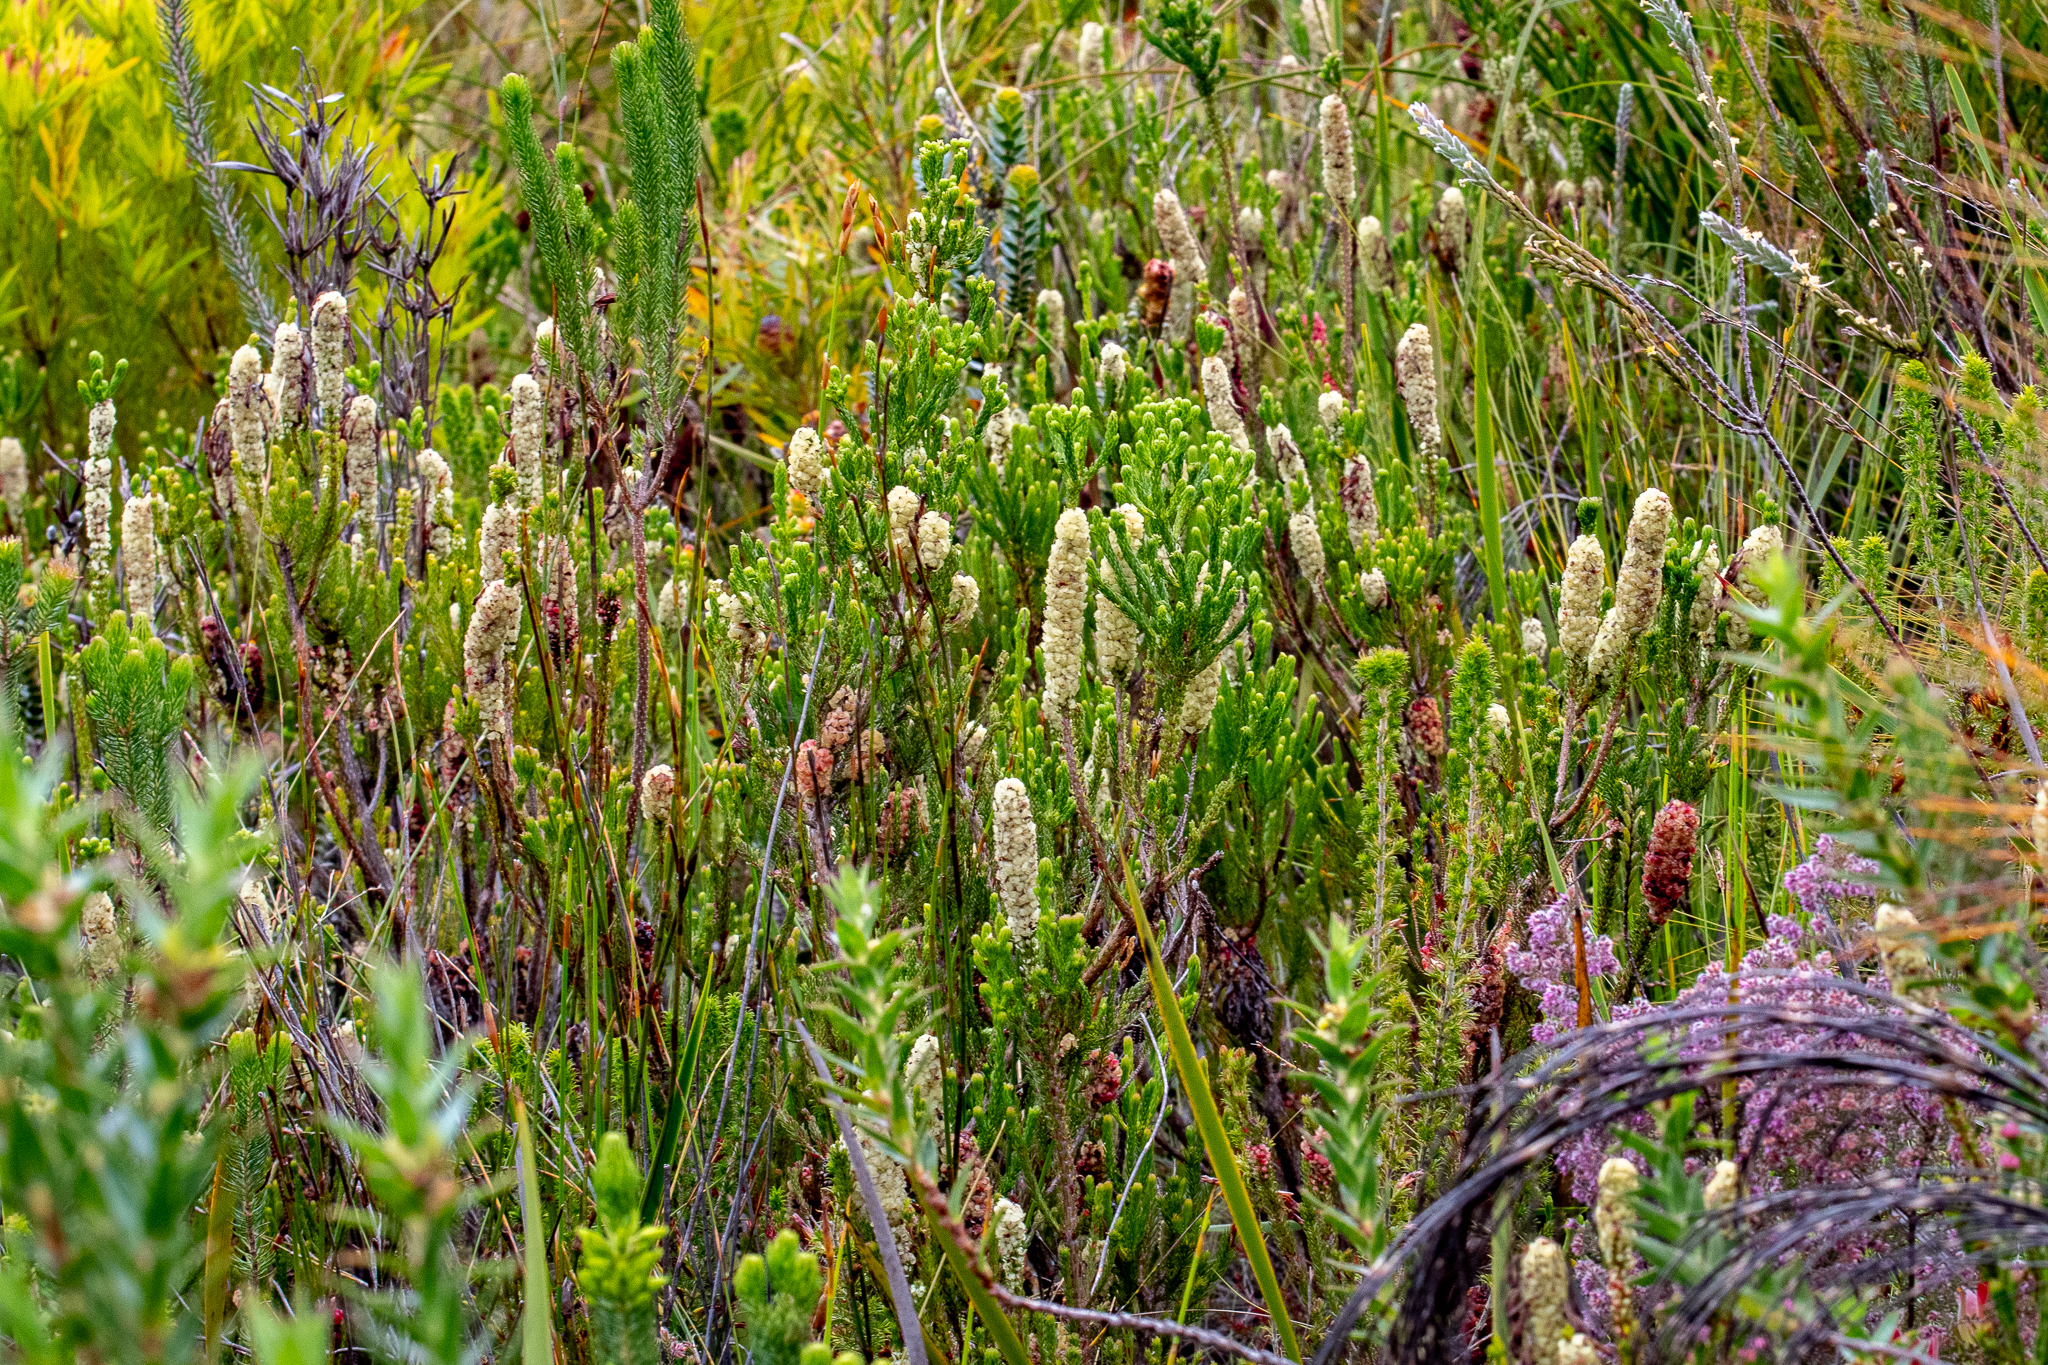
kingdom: Plantae
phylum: Tracheophyta
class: Magnoliopsida
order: Ericales
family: Ericaceae
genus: Erica
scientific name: Erica sessiliflora
